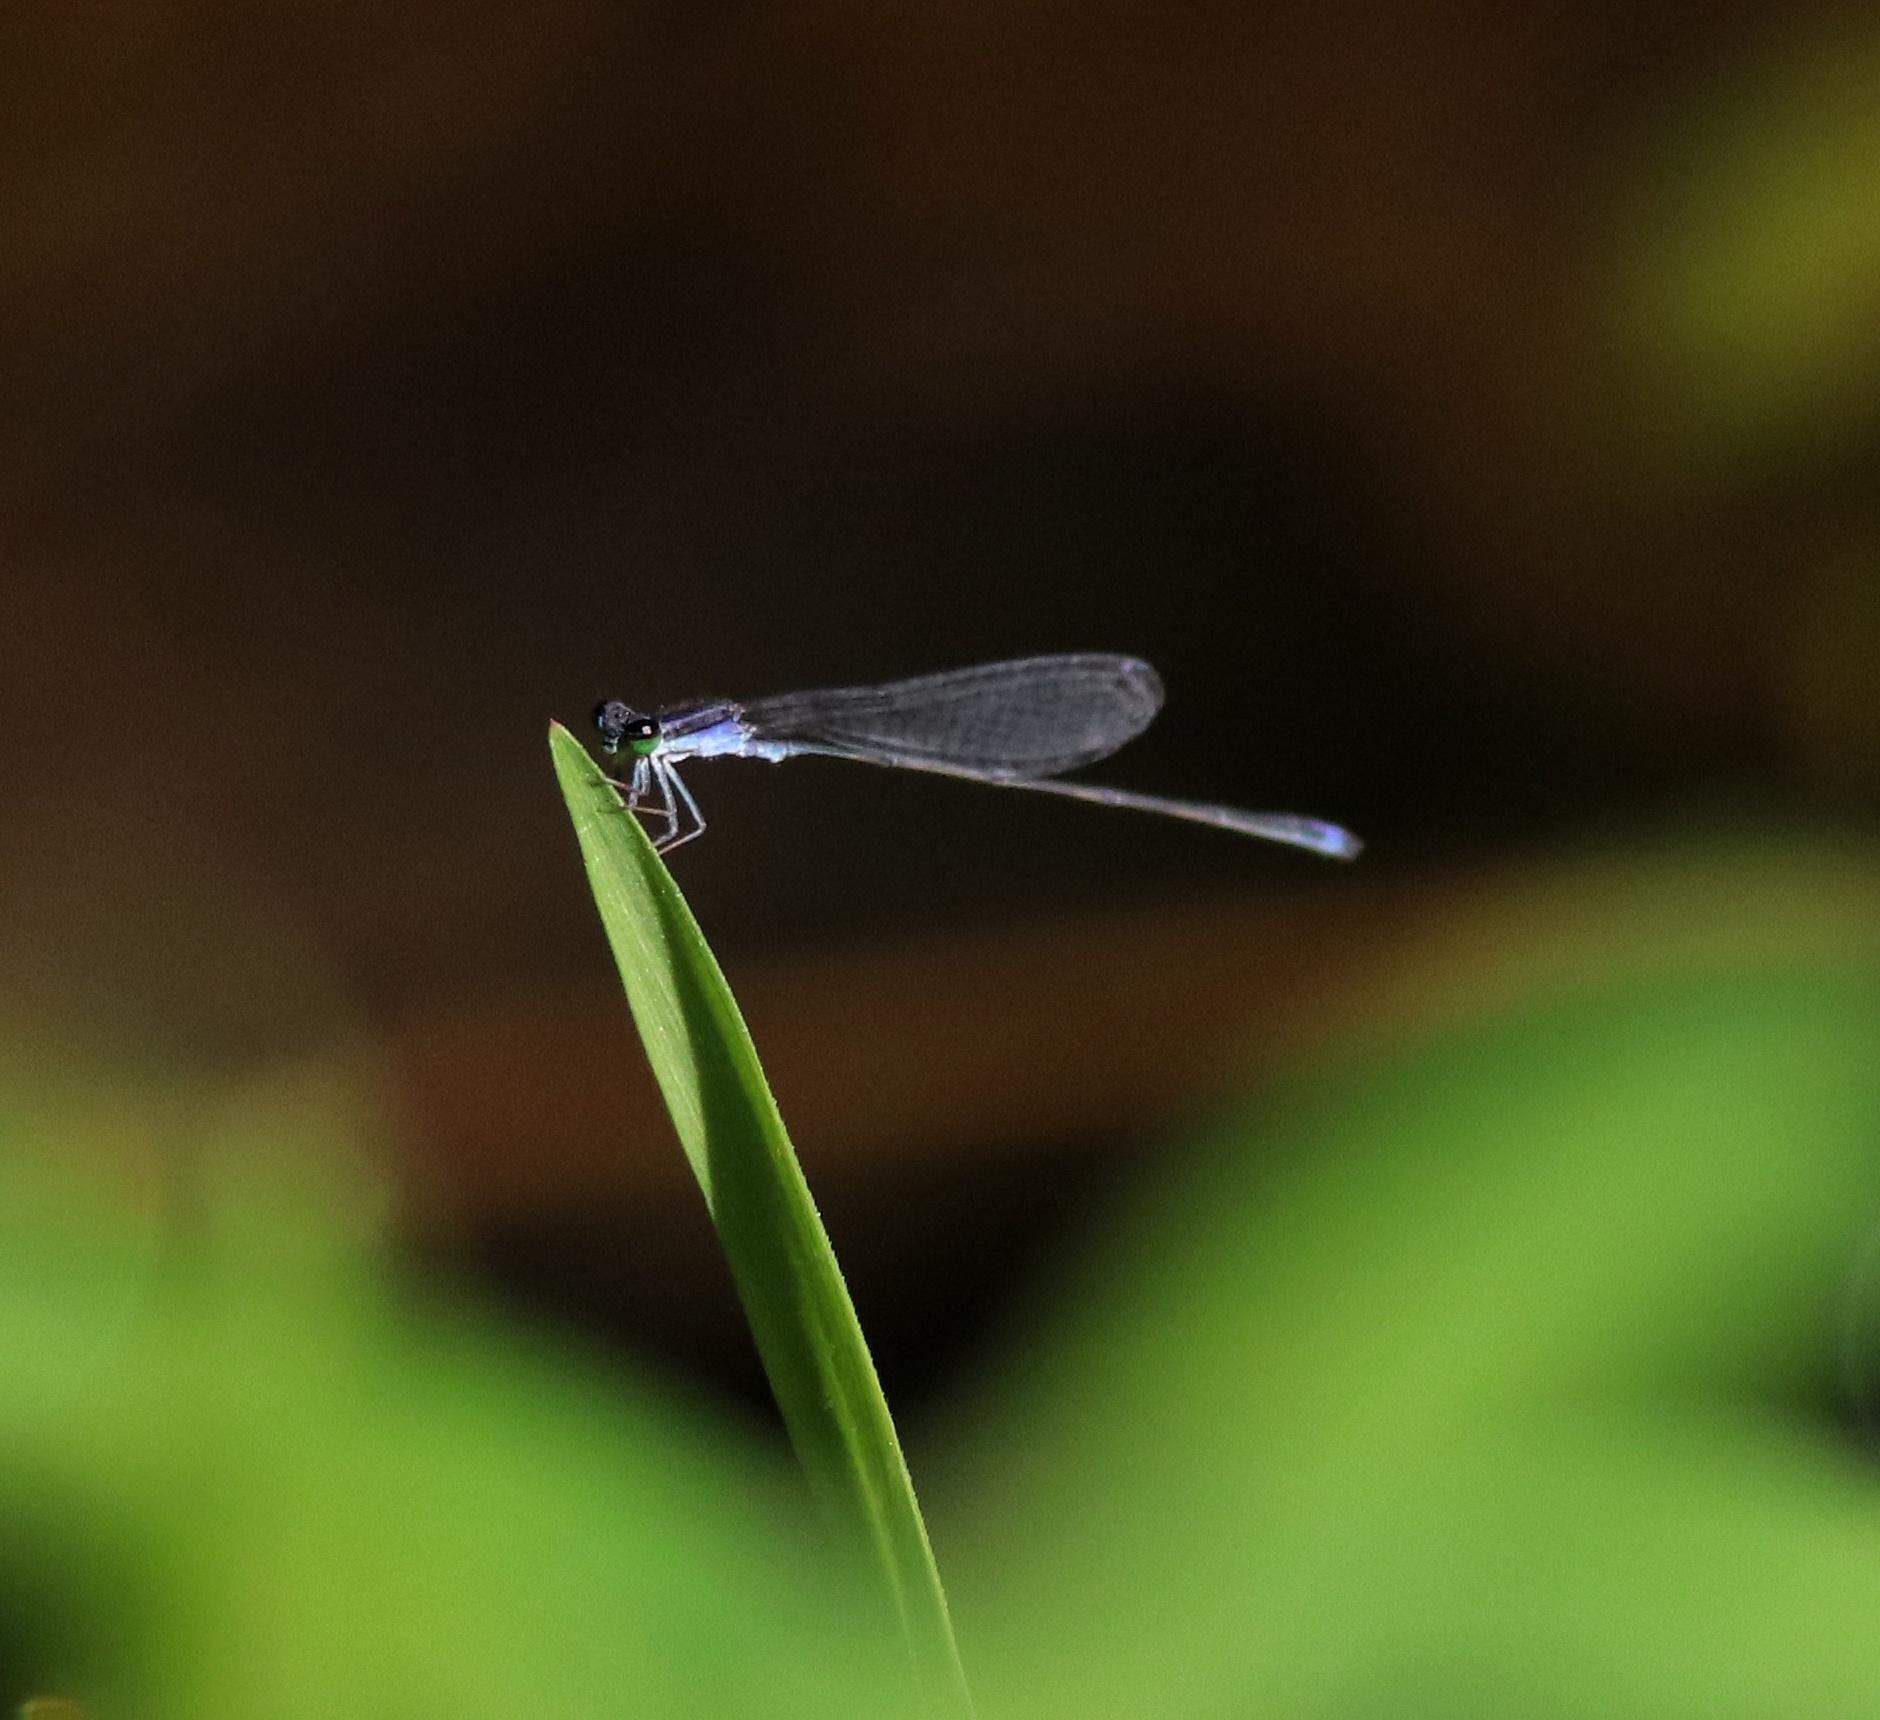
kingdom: Animalia
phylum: Arthropoda
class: Insecta
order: Odonata
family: Coenagrionidae
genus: Aciagrion
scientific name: Aciagrion approximans
